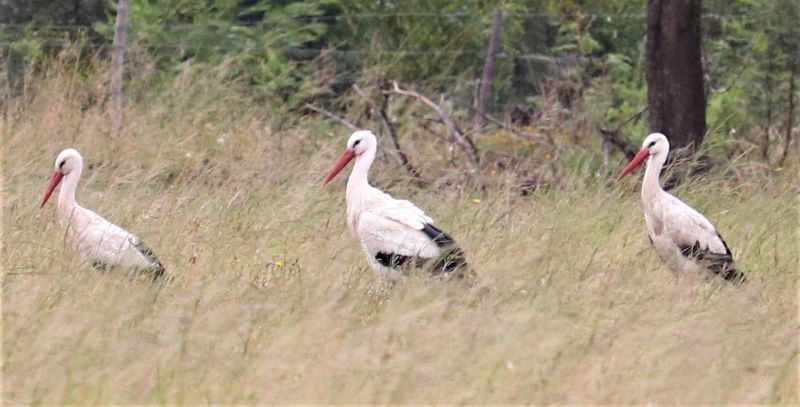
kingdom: Animalia
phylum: Chordata
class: Aves
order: Ciconiiformes
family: Ciconiidae
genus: Ciconia
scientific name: Ciconia ciconia
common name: White stork
